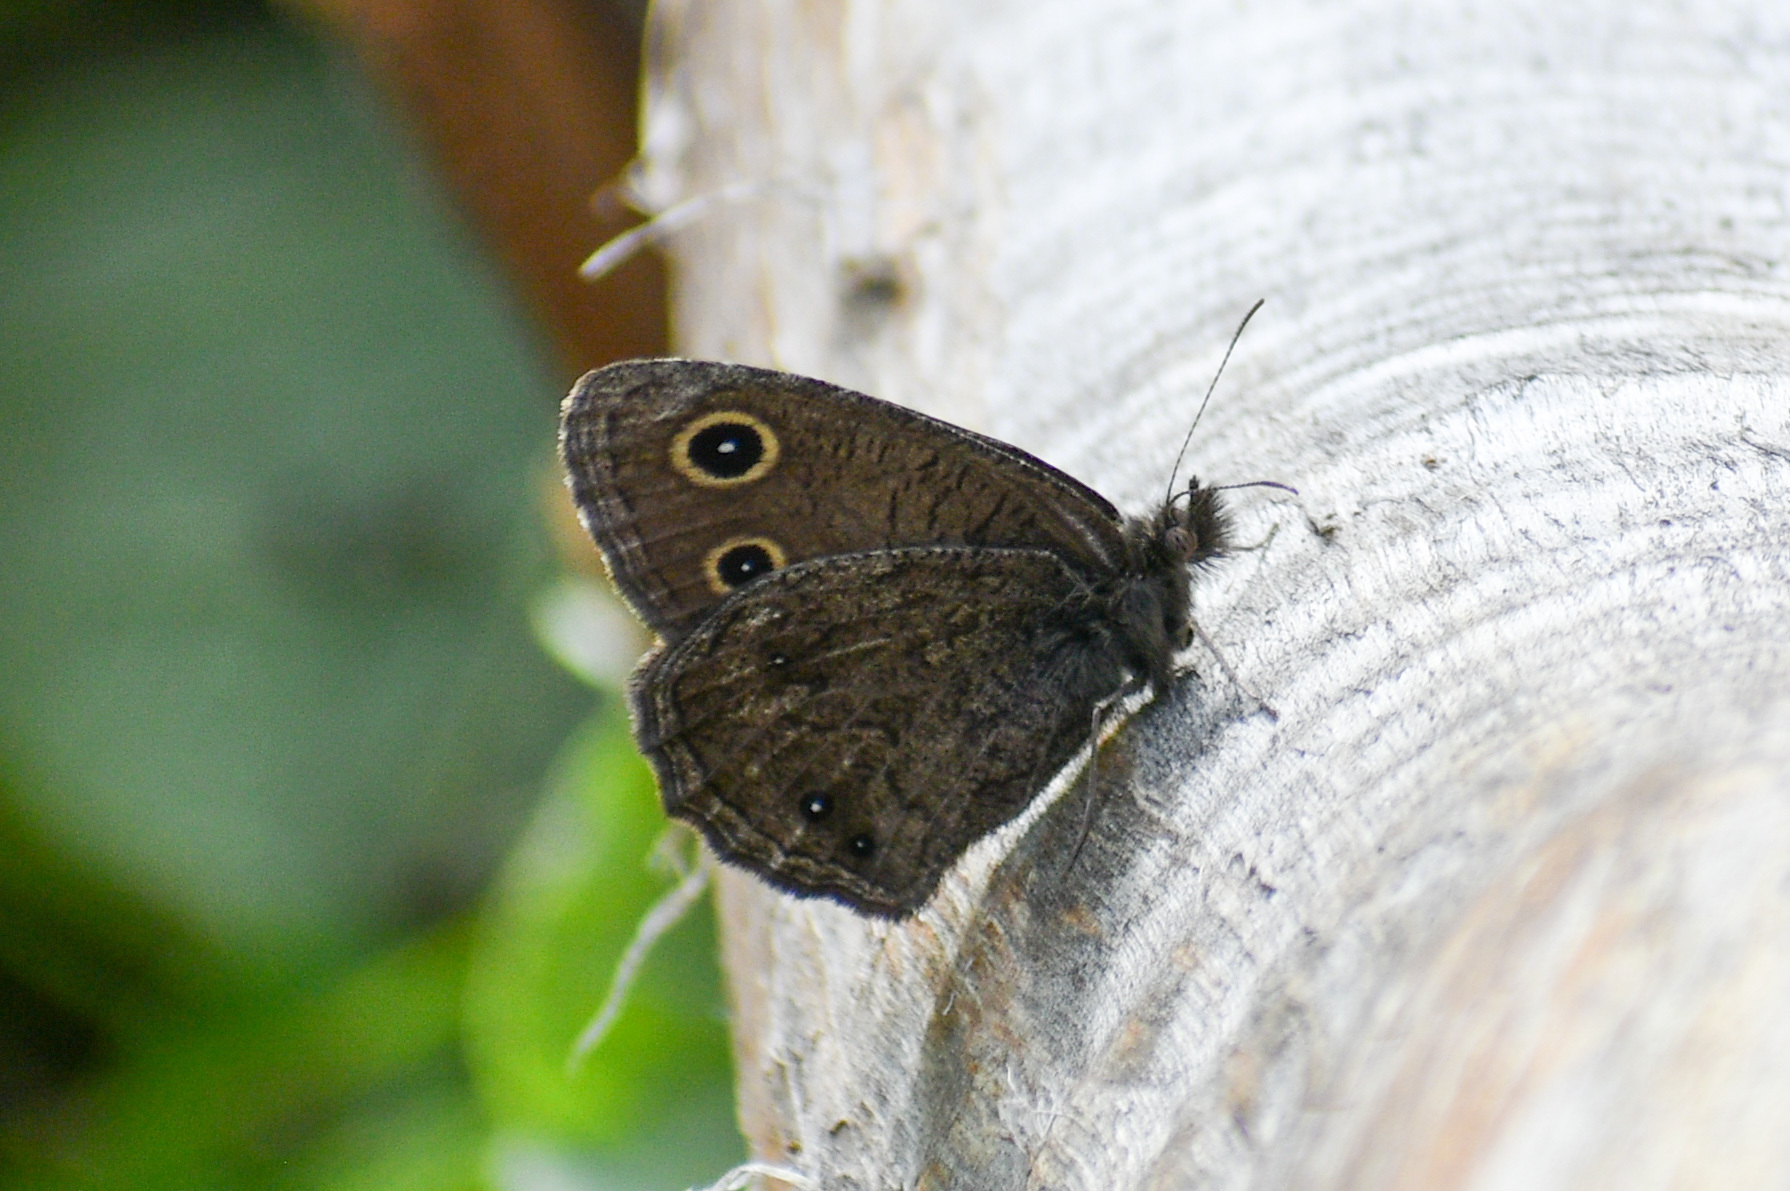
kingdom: Animalia
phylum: Arthropoda
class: Insecta
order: Lepidoptera
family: Nymphalidae
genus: Cercyonis
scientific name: Cercyonis oetus
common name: Small wood-nymph
